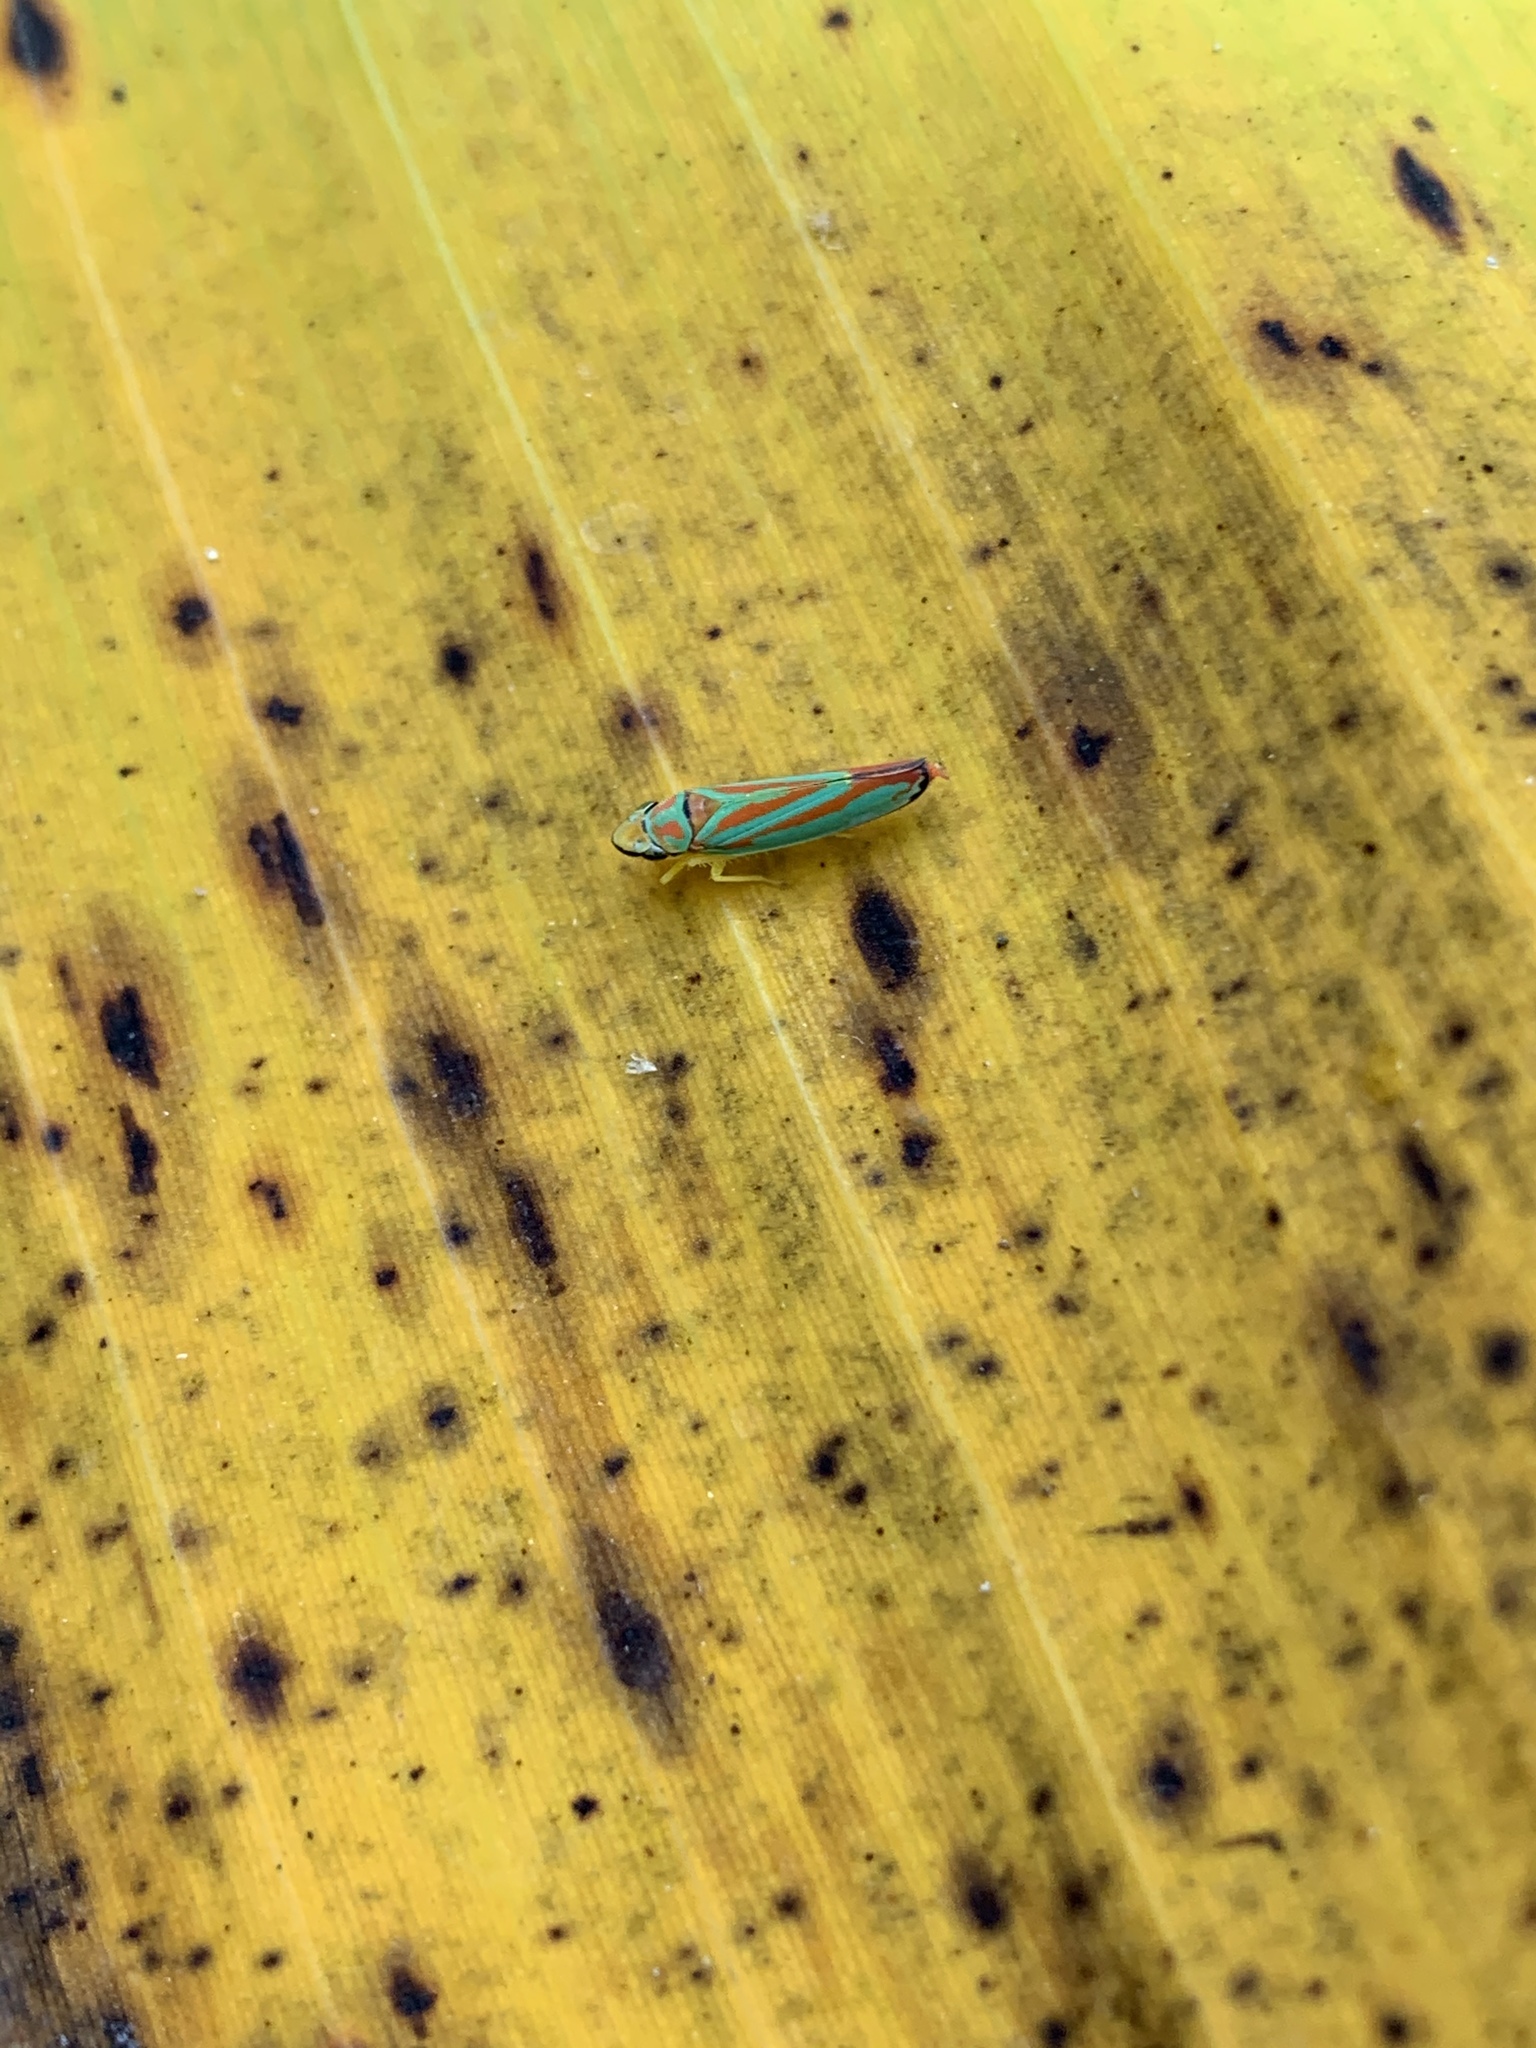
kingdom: Animalia
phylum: Arthropoda
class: Insecta
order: Hemiptera
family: Cicadellidae
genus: Graphocephala
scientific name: Graphocephala coccinea
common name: Candy-striped leafhopper
